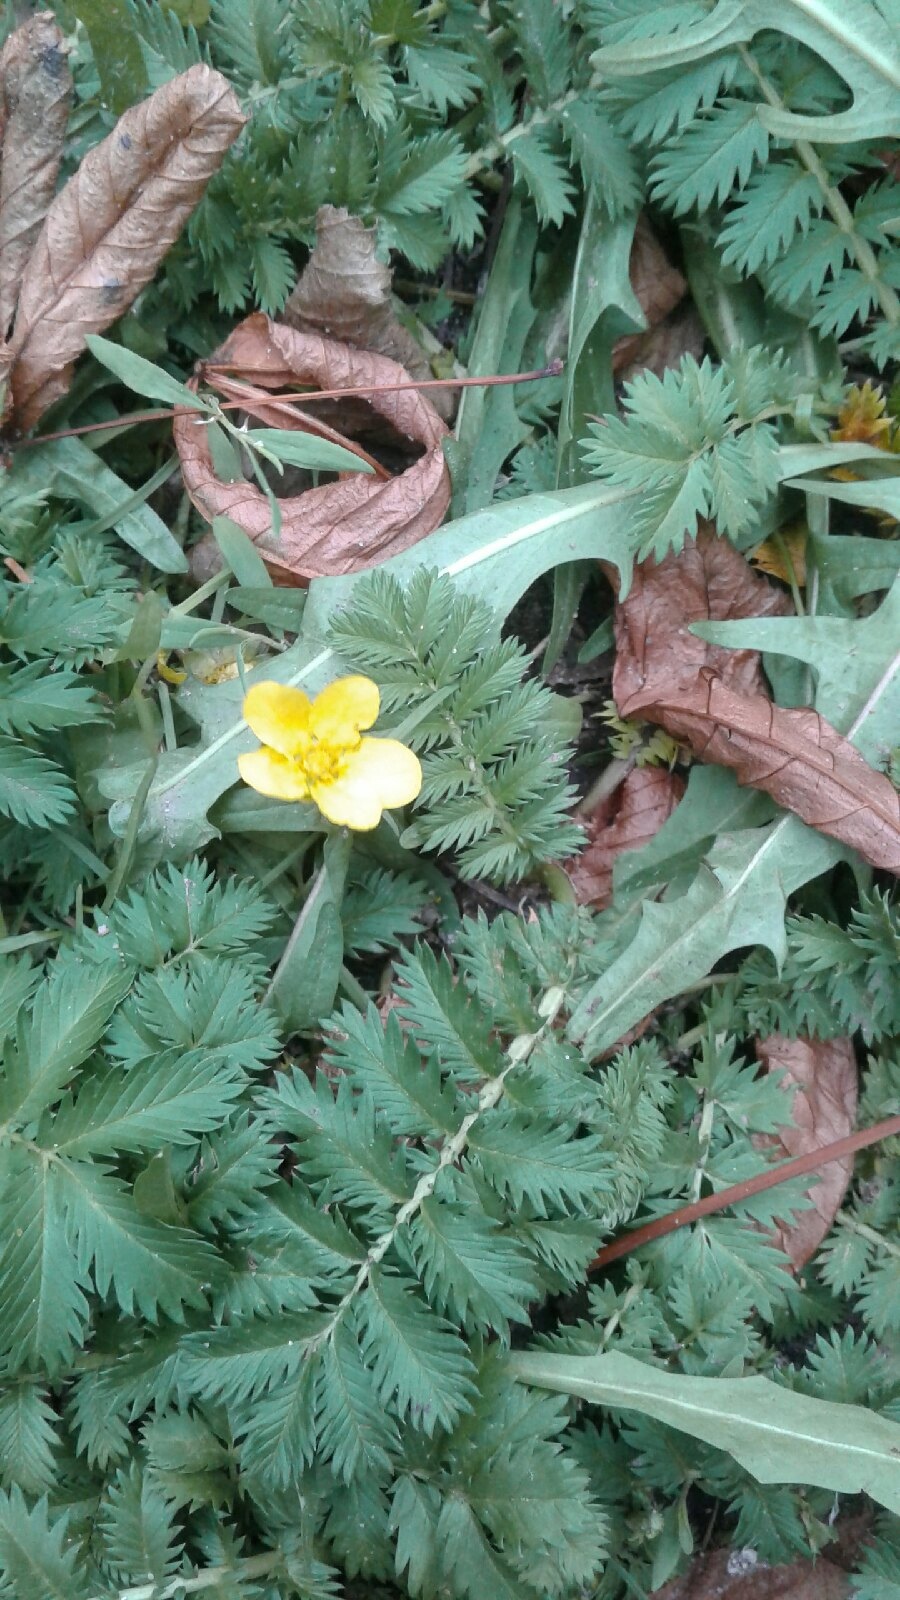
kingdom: Plantae
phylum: Tracheophyta
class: Magnoliopsida
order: Rosales
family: Rosaceae
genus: Argentina
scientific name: Argentina anserina
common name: Common silverweed
